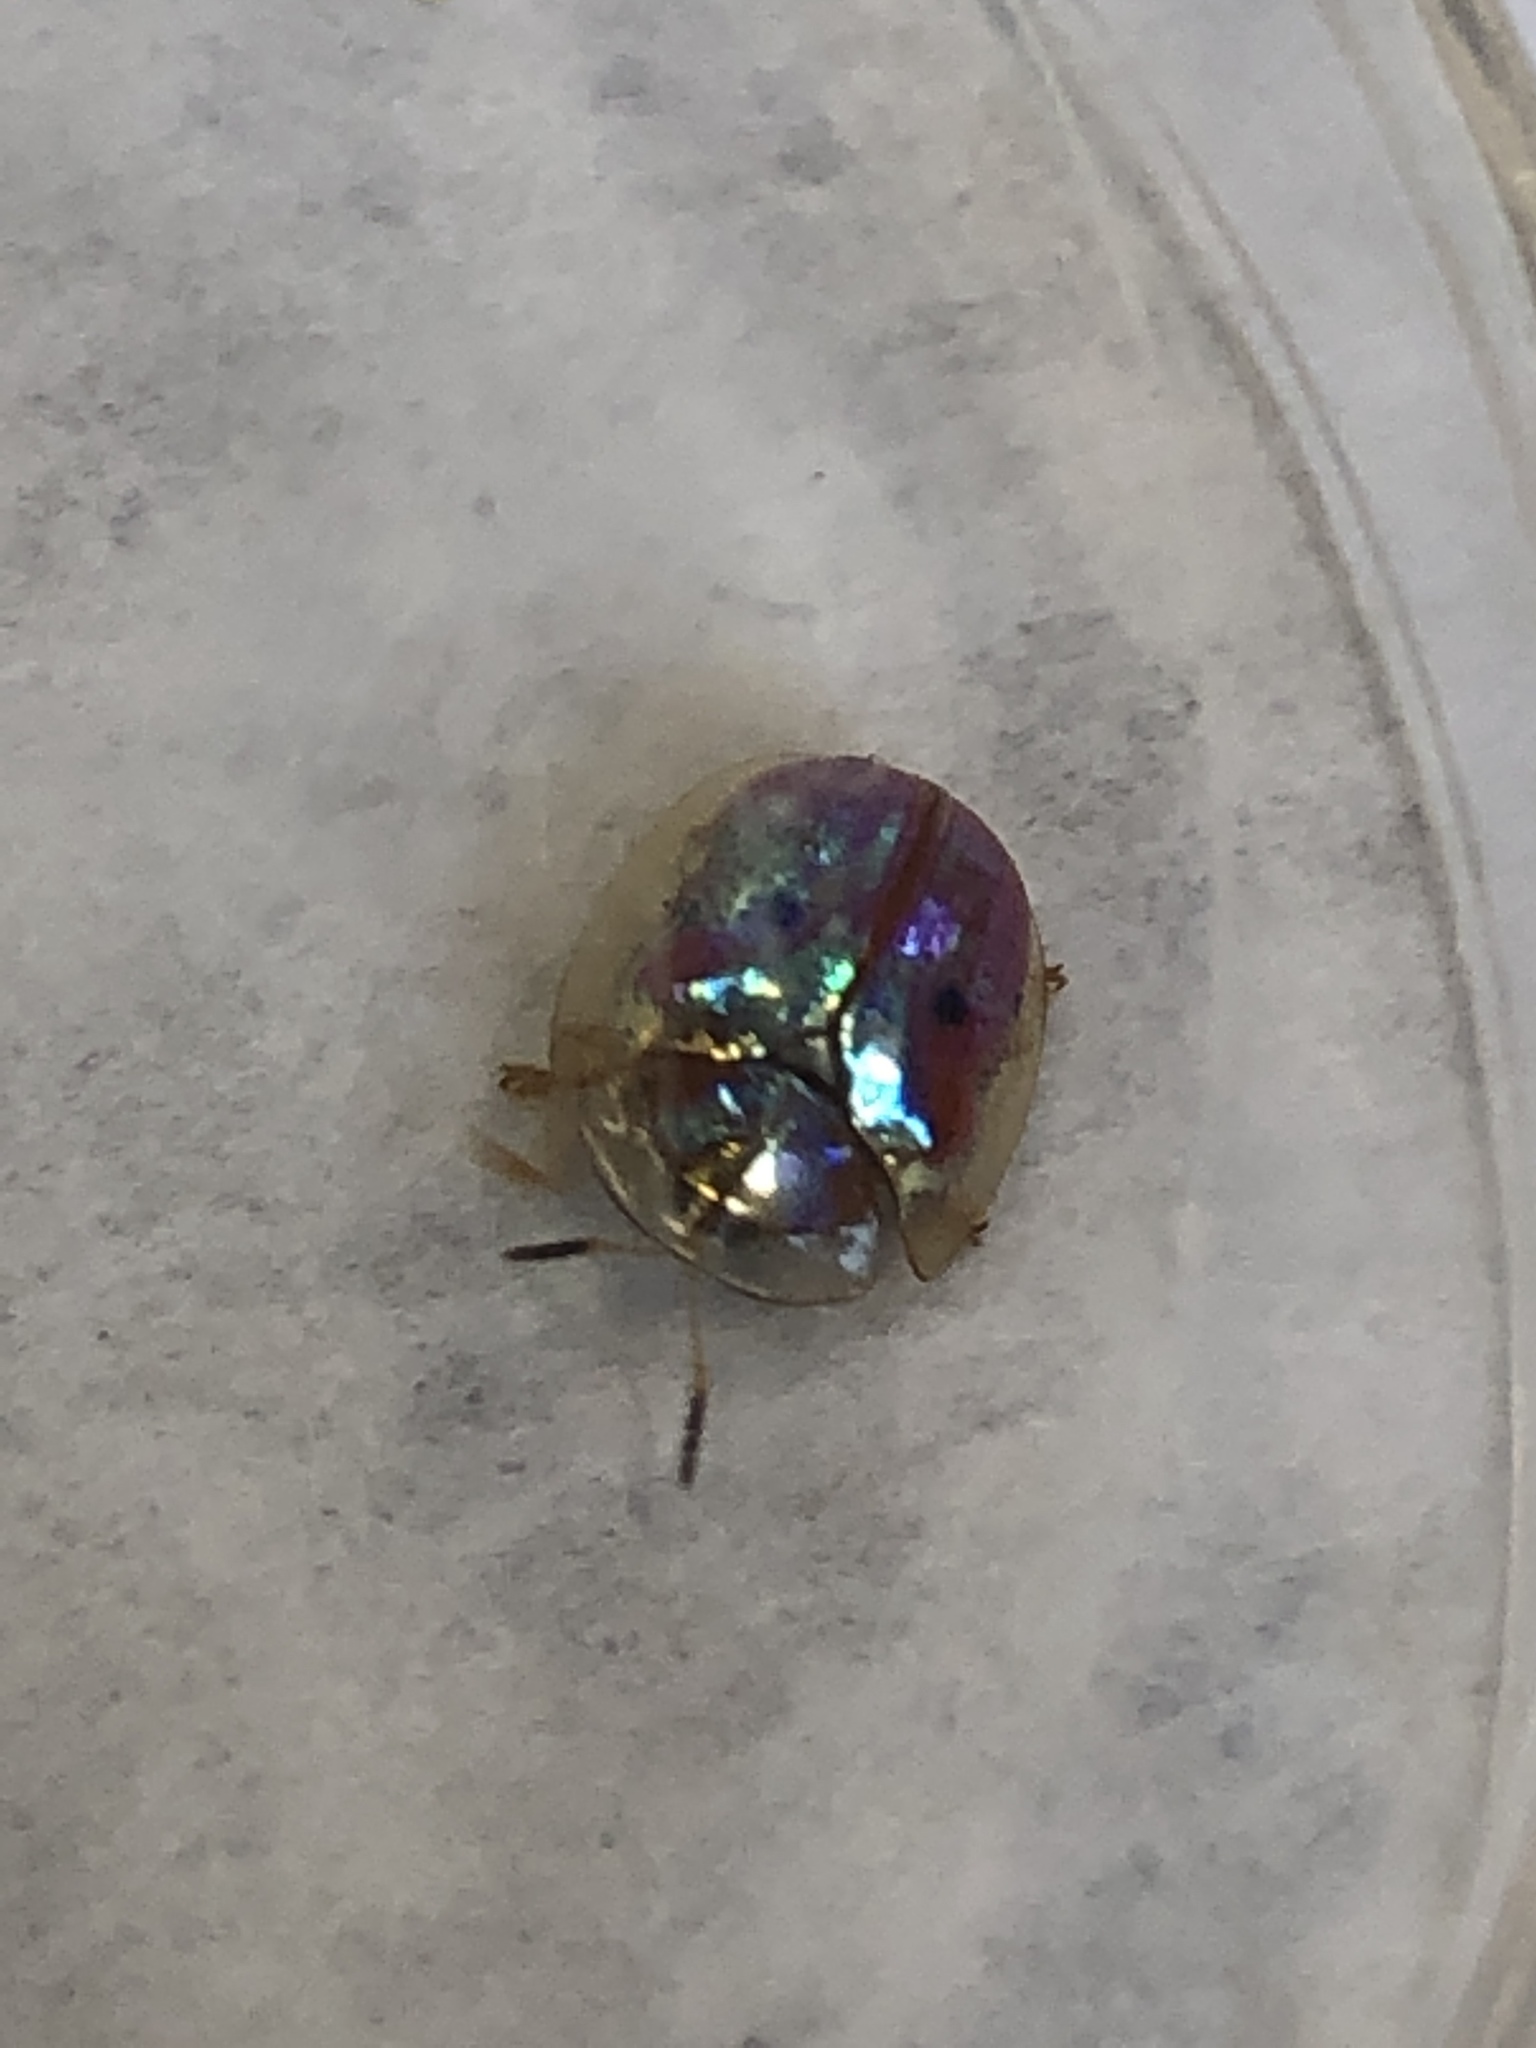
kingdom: Animalia
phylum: Arthropoda
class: Insecta
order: Coleoptera
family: Chrysomelidae
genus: Charidotella
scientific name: Charidotella sexpunctata
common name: Golden tortoise beetle
